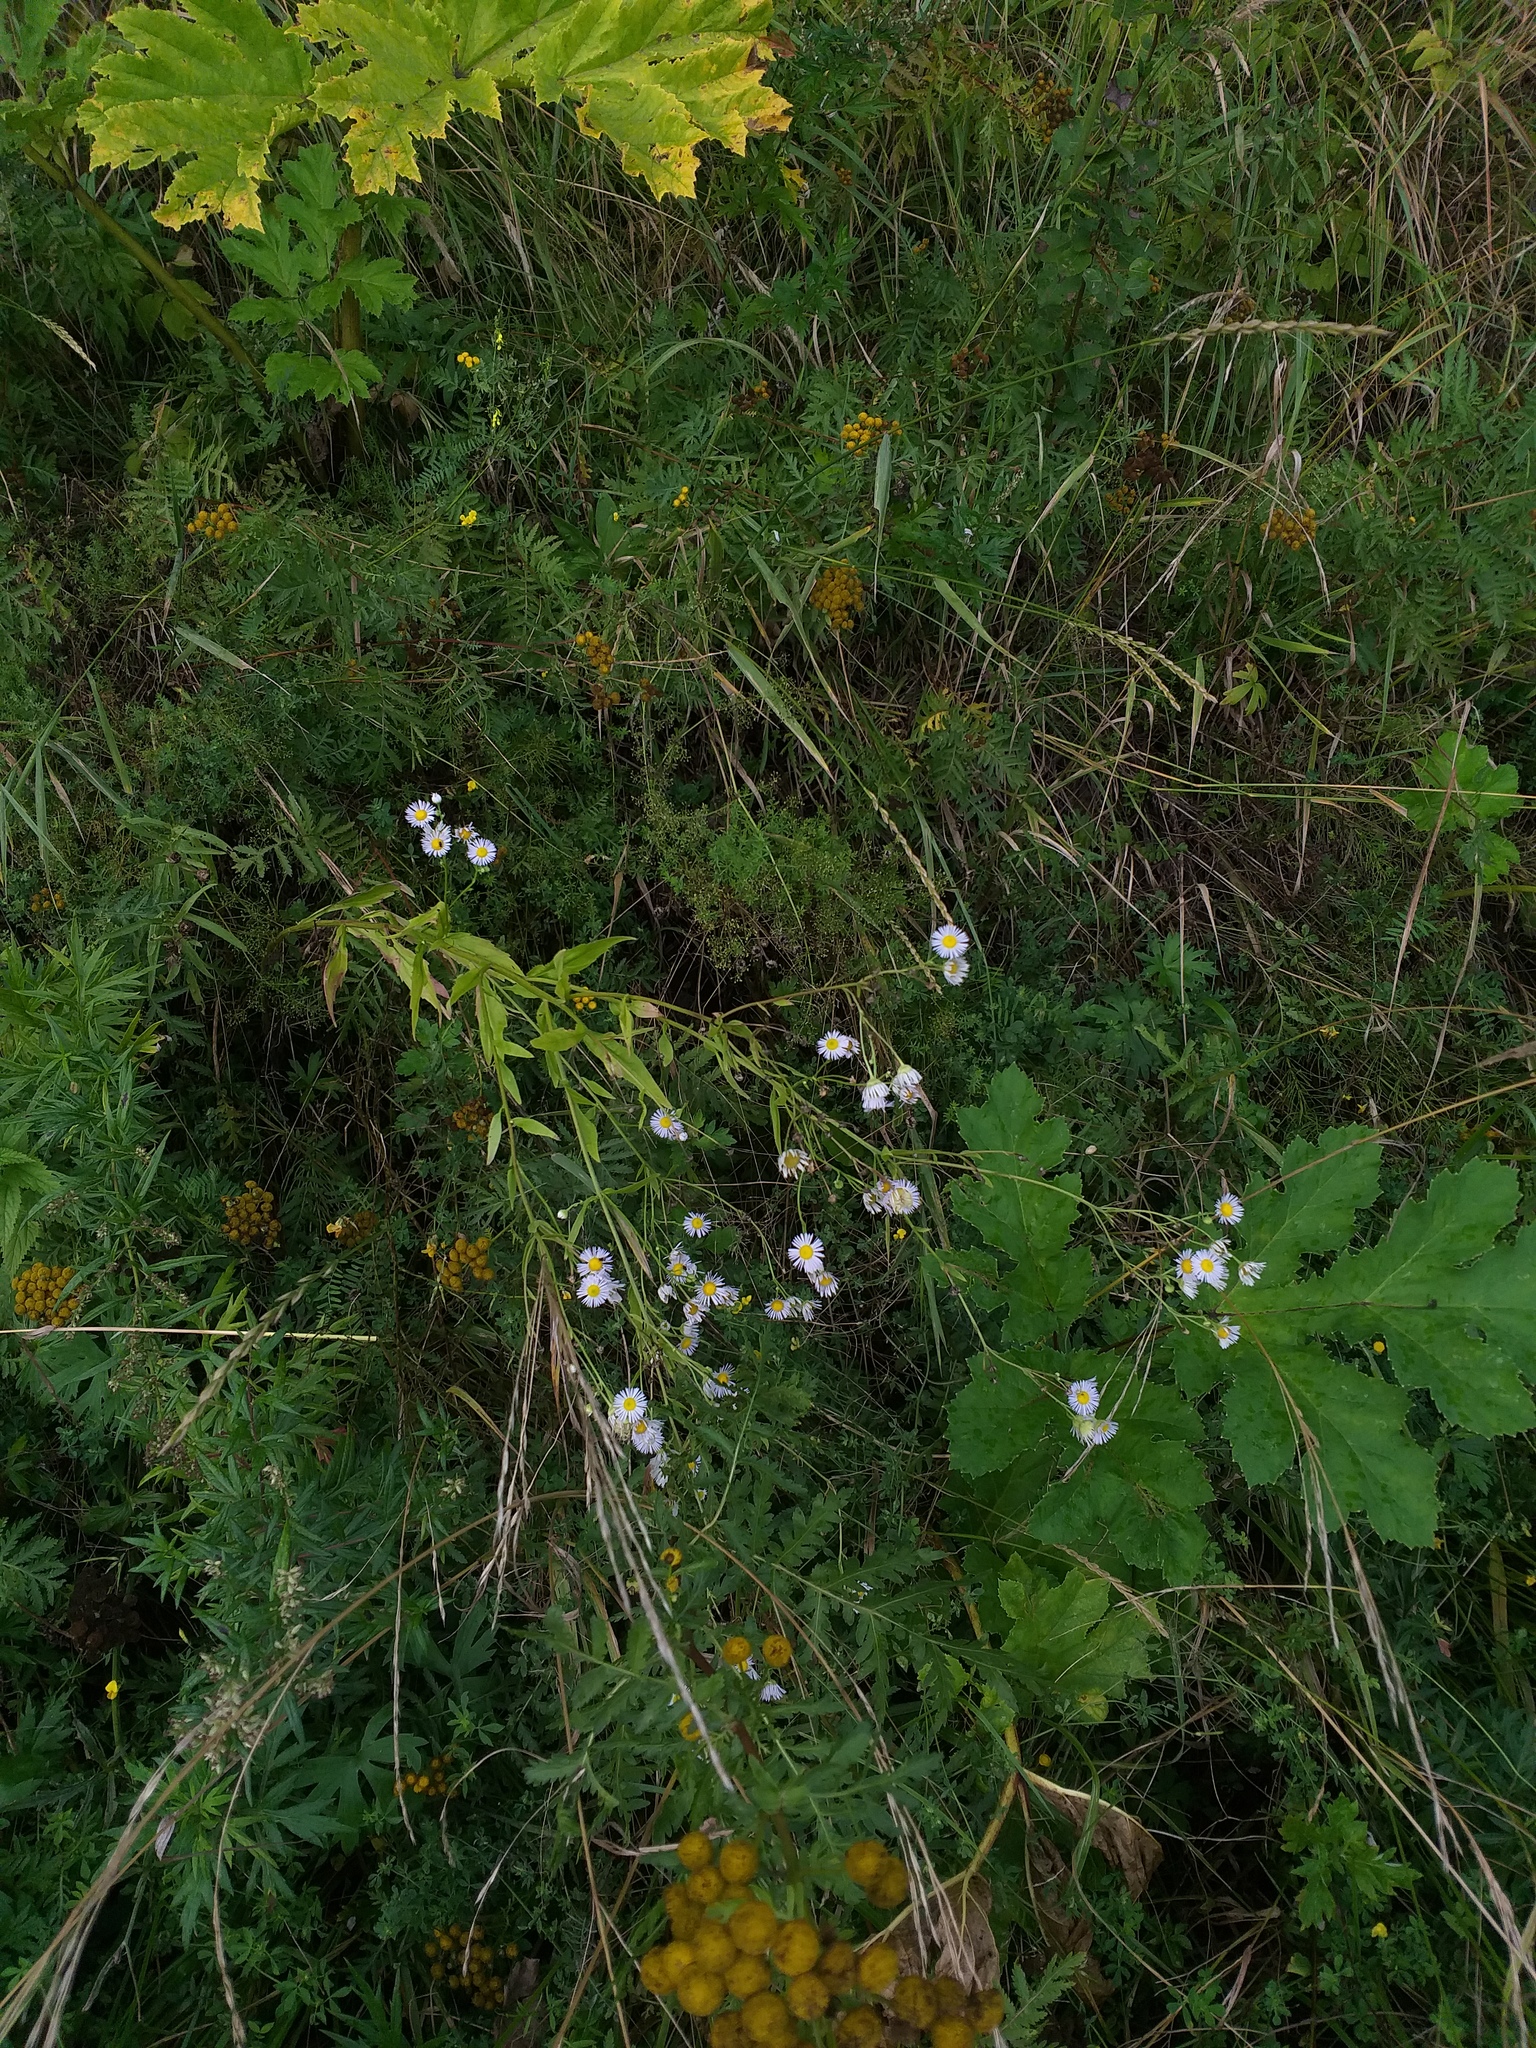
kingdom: Plantae
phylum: Tracheophyta
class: Magnoliopsida
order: Asterales
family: Asteraceae
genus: Erigeron
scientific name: Erigeron annuus
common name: Tall fleabane
